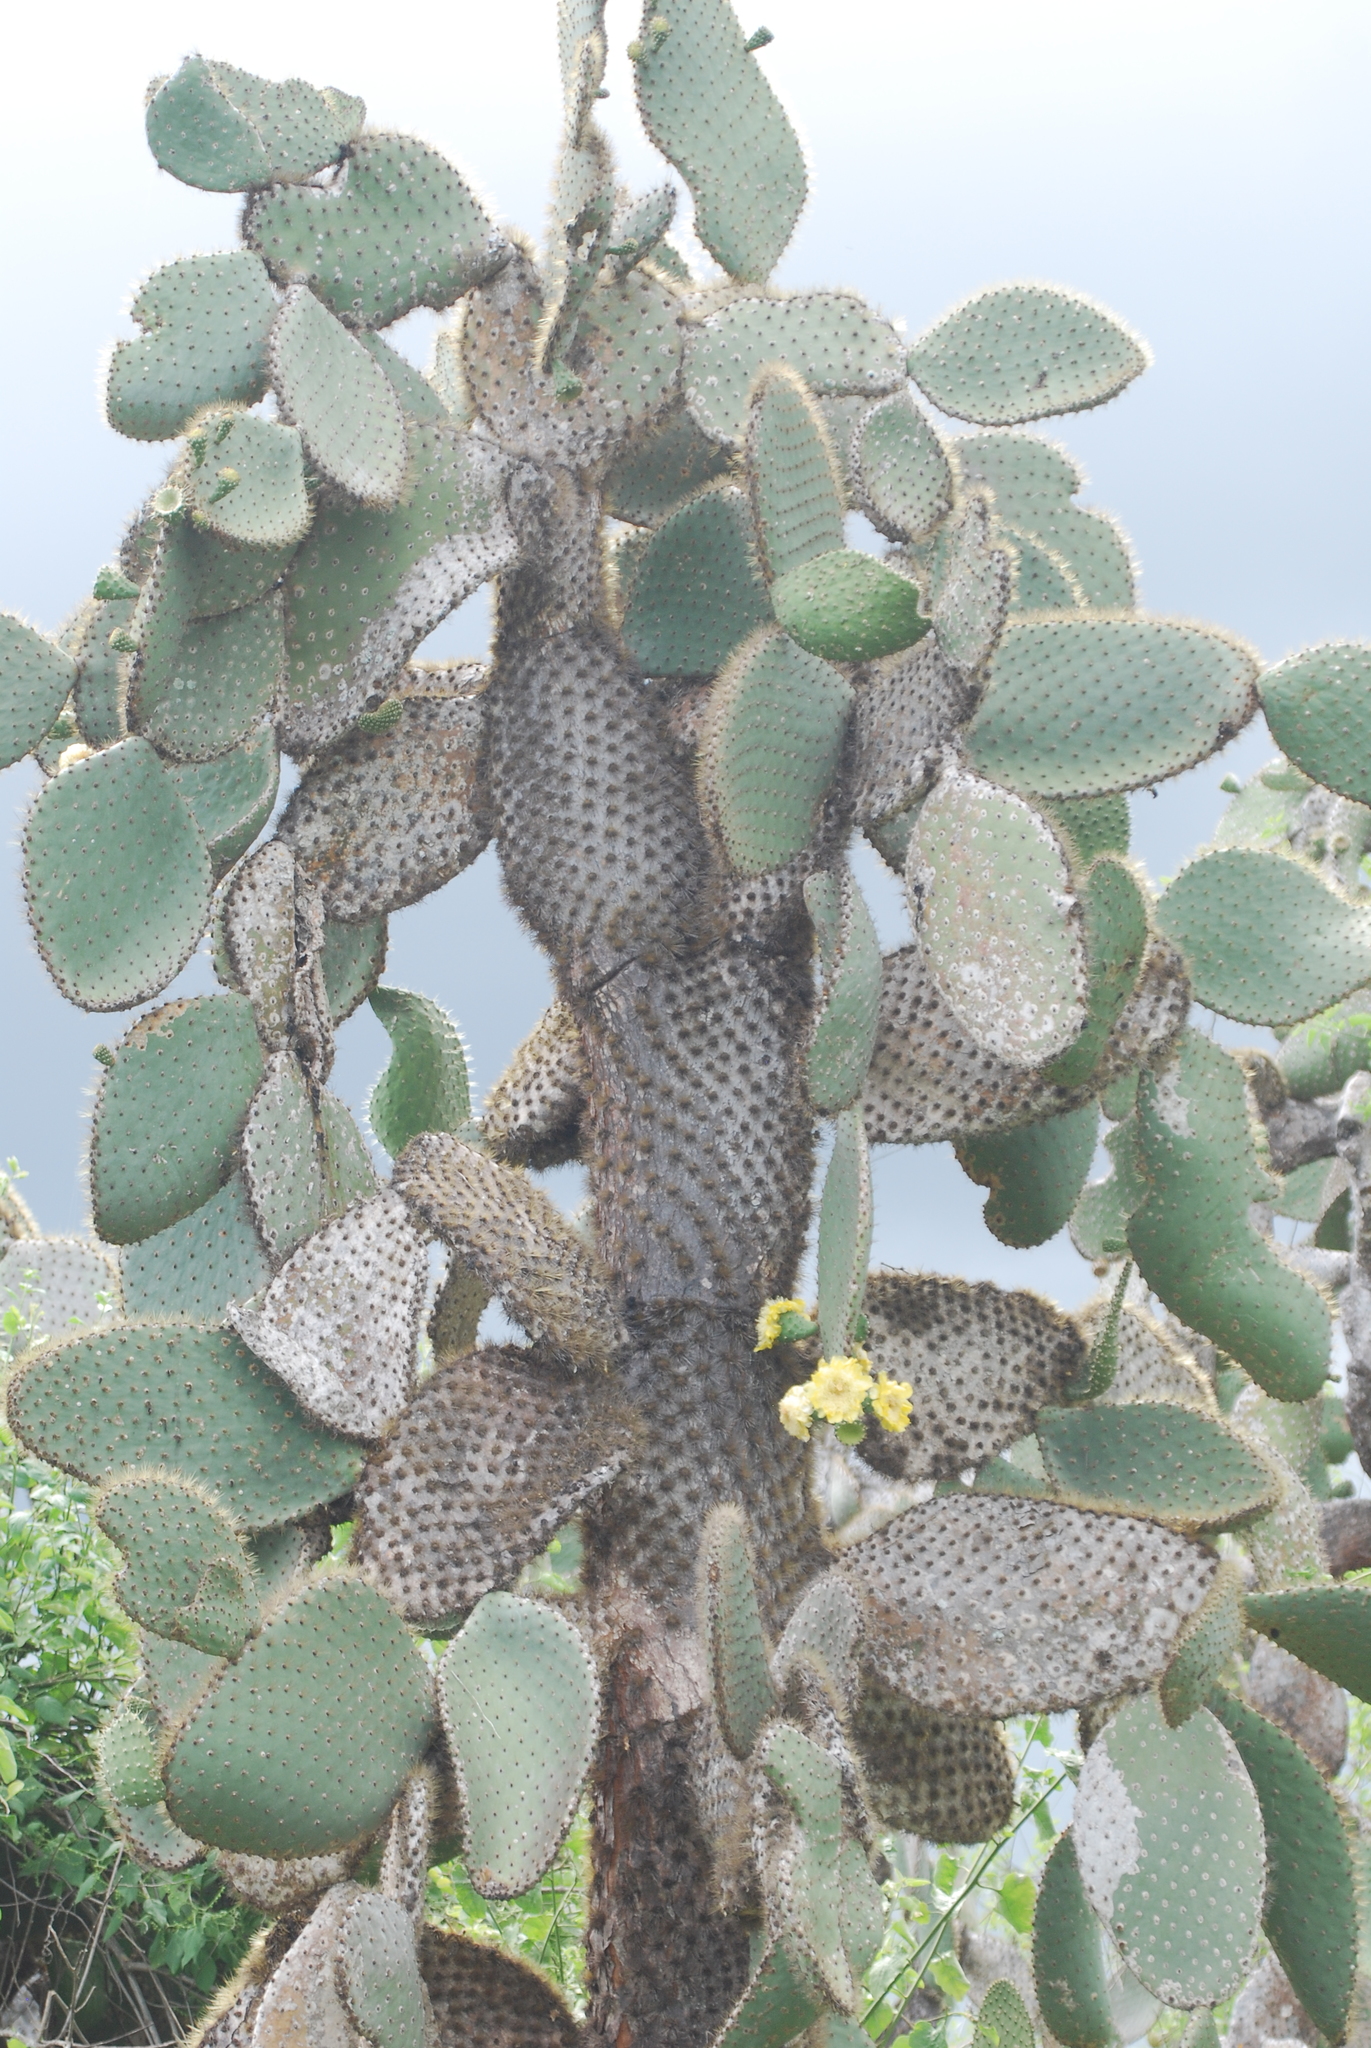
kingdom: Plantae
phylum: Tracheophyta
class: Magnoliopsida
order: Caryophyllales
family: Cactaceae
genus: Opuntia
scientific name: Opuntia galapageia
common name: Galápagos prickly pear
